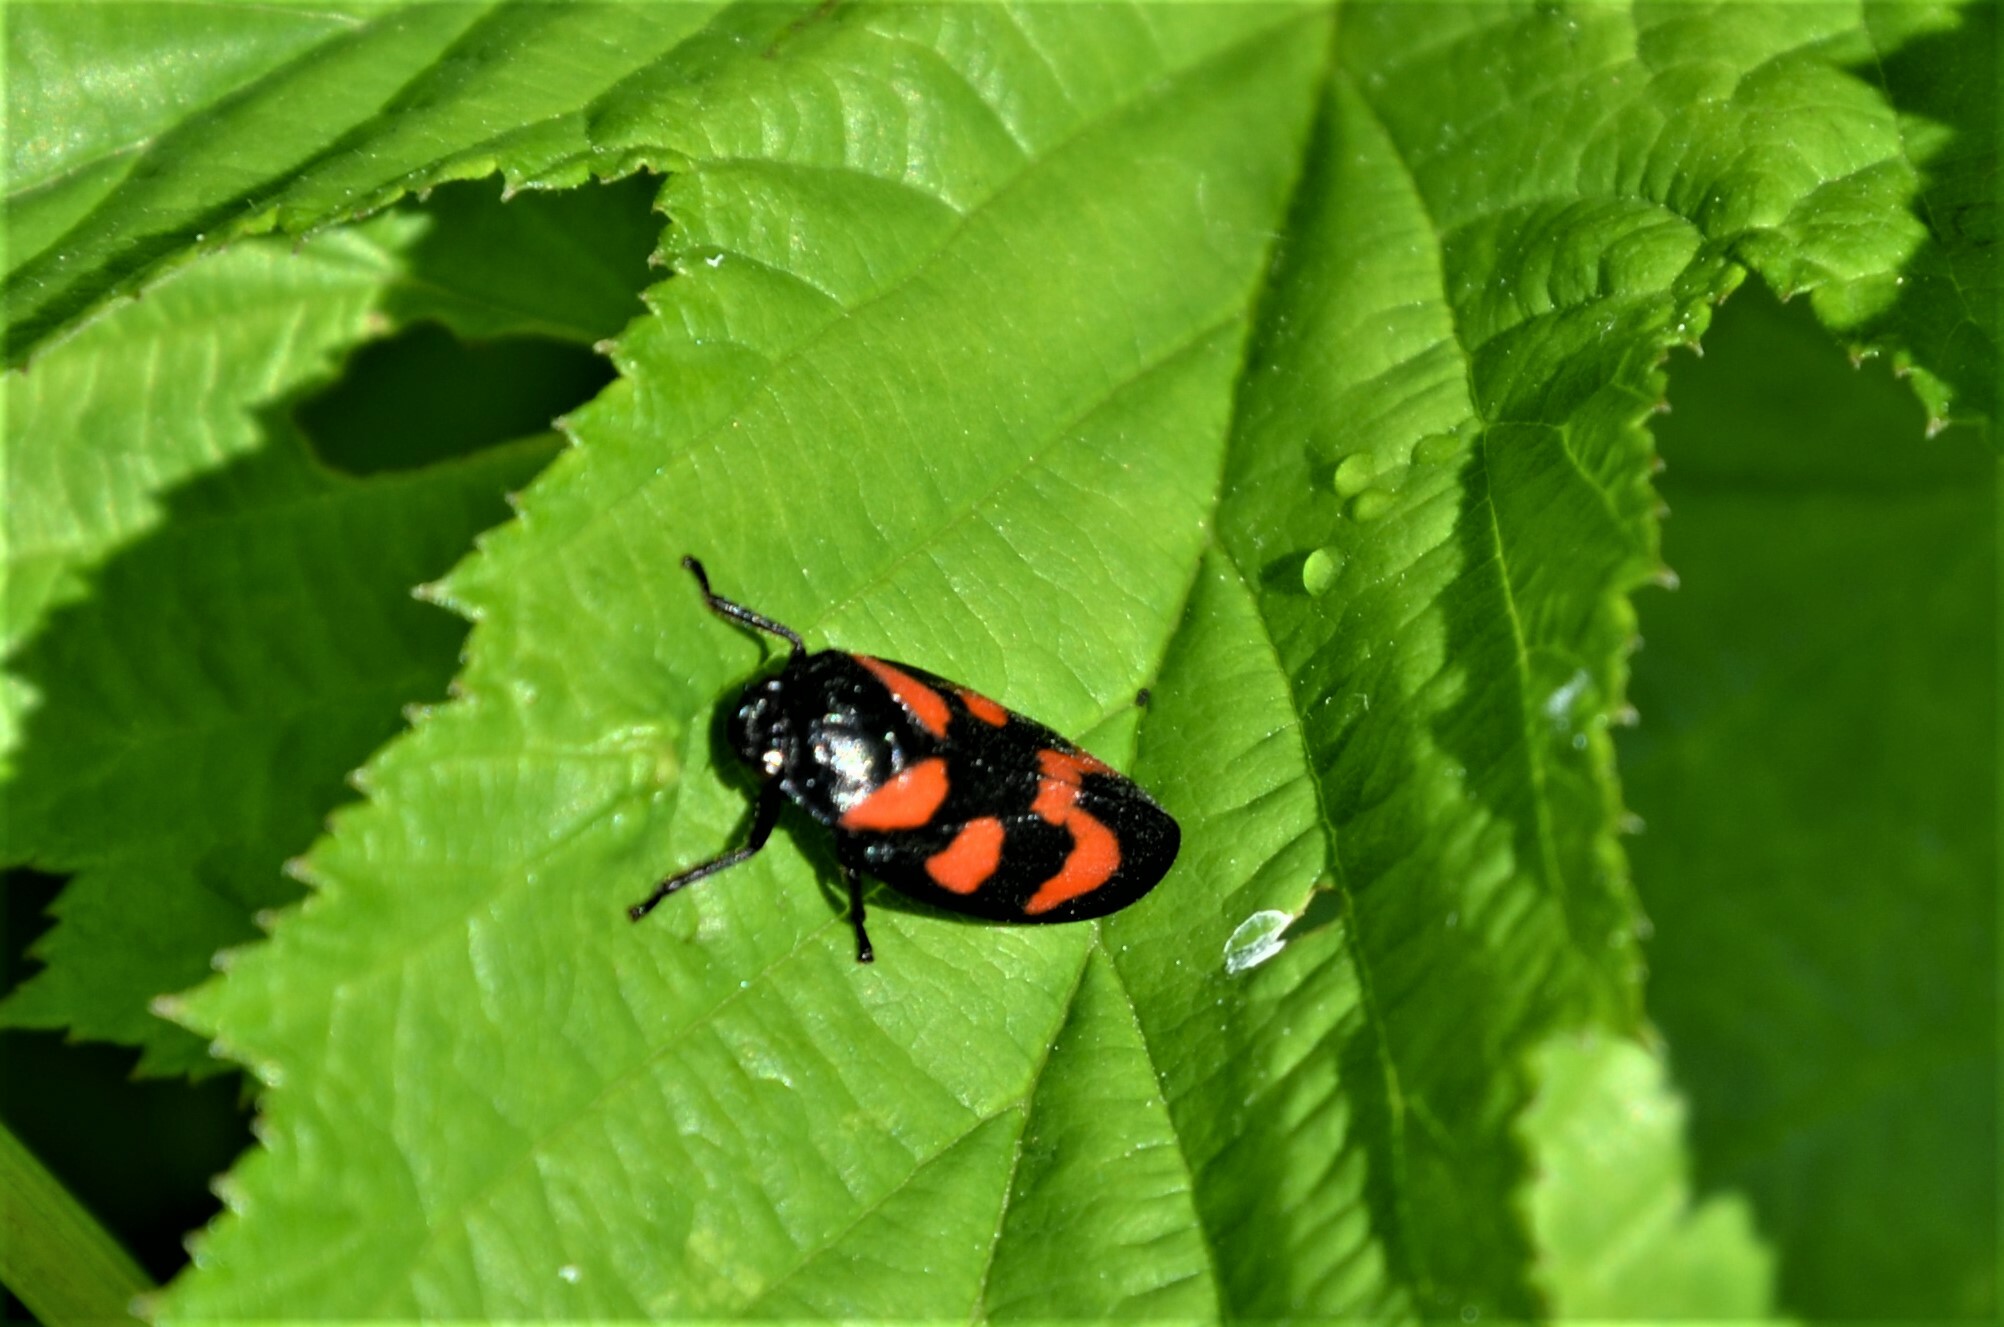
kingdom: Animalia
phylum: Arthropoda
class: Insecta
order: Hemiptera
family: Cercopidae
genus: Cercopis
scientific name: Cercopis vulnerata
